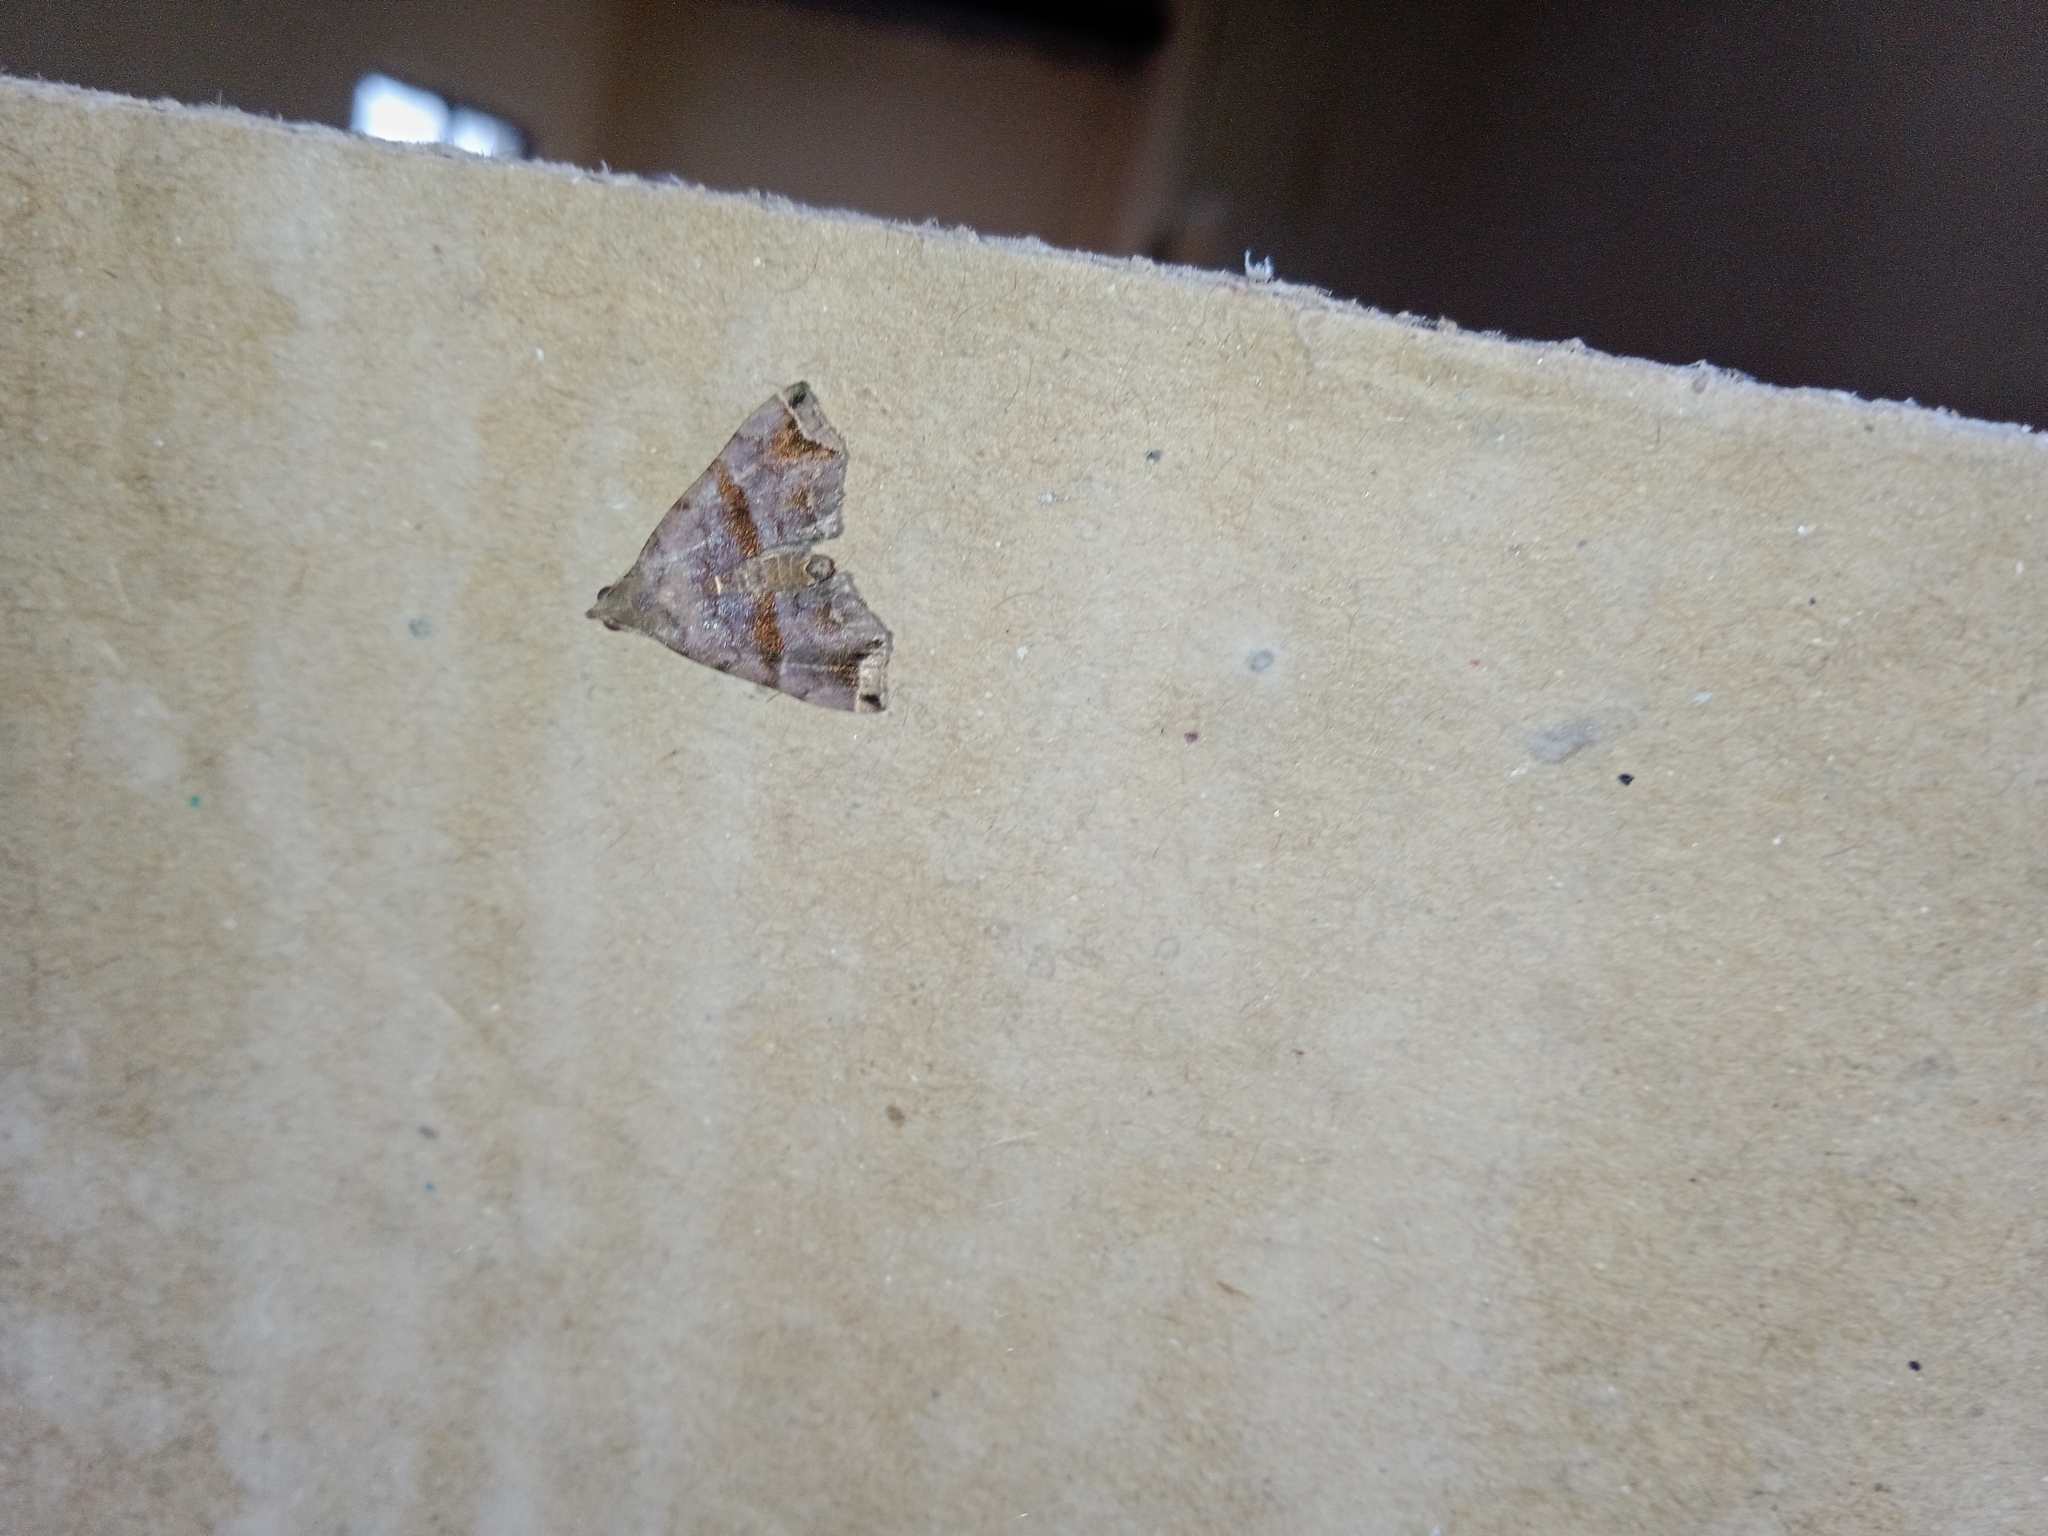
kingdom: Animalia
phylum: Arthropoda
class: Insecta
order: Lepidoptera
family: Erebidae
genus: Polypogon
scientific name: Polypogon biasalis
